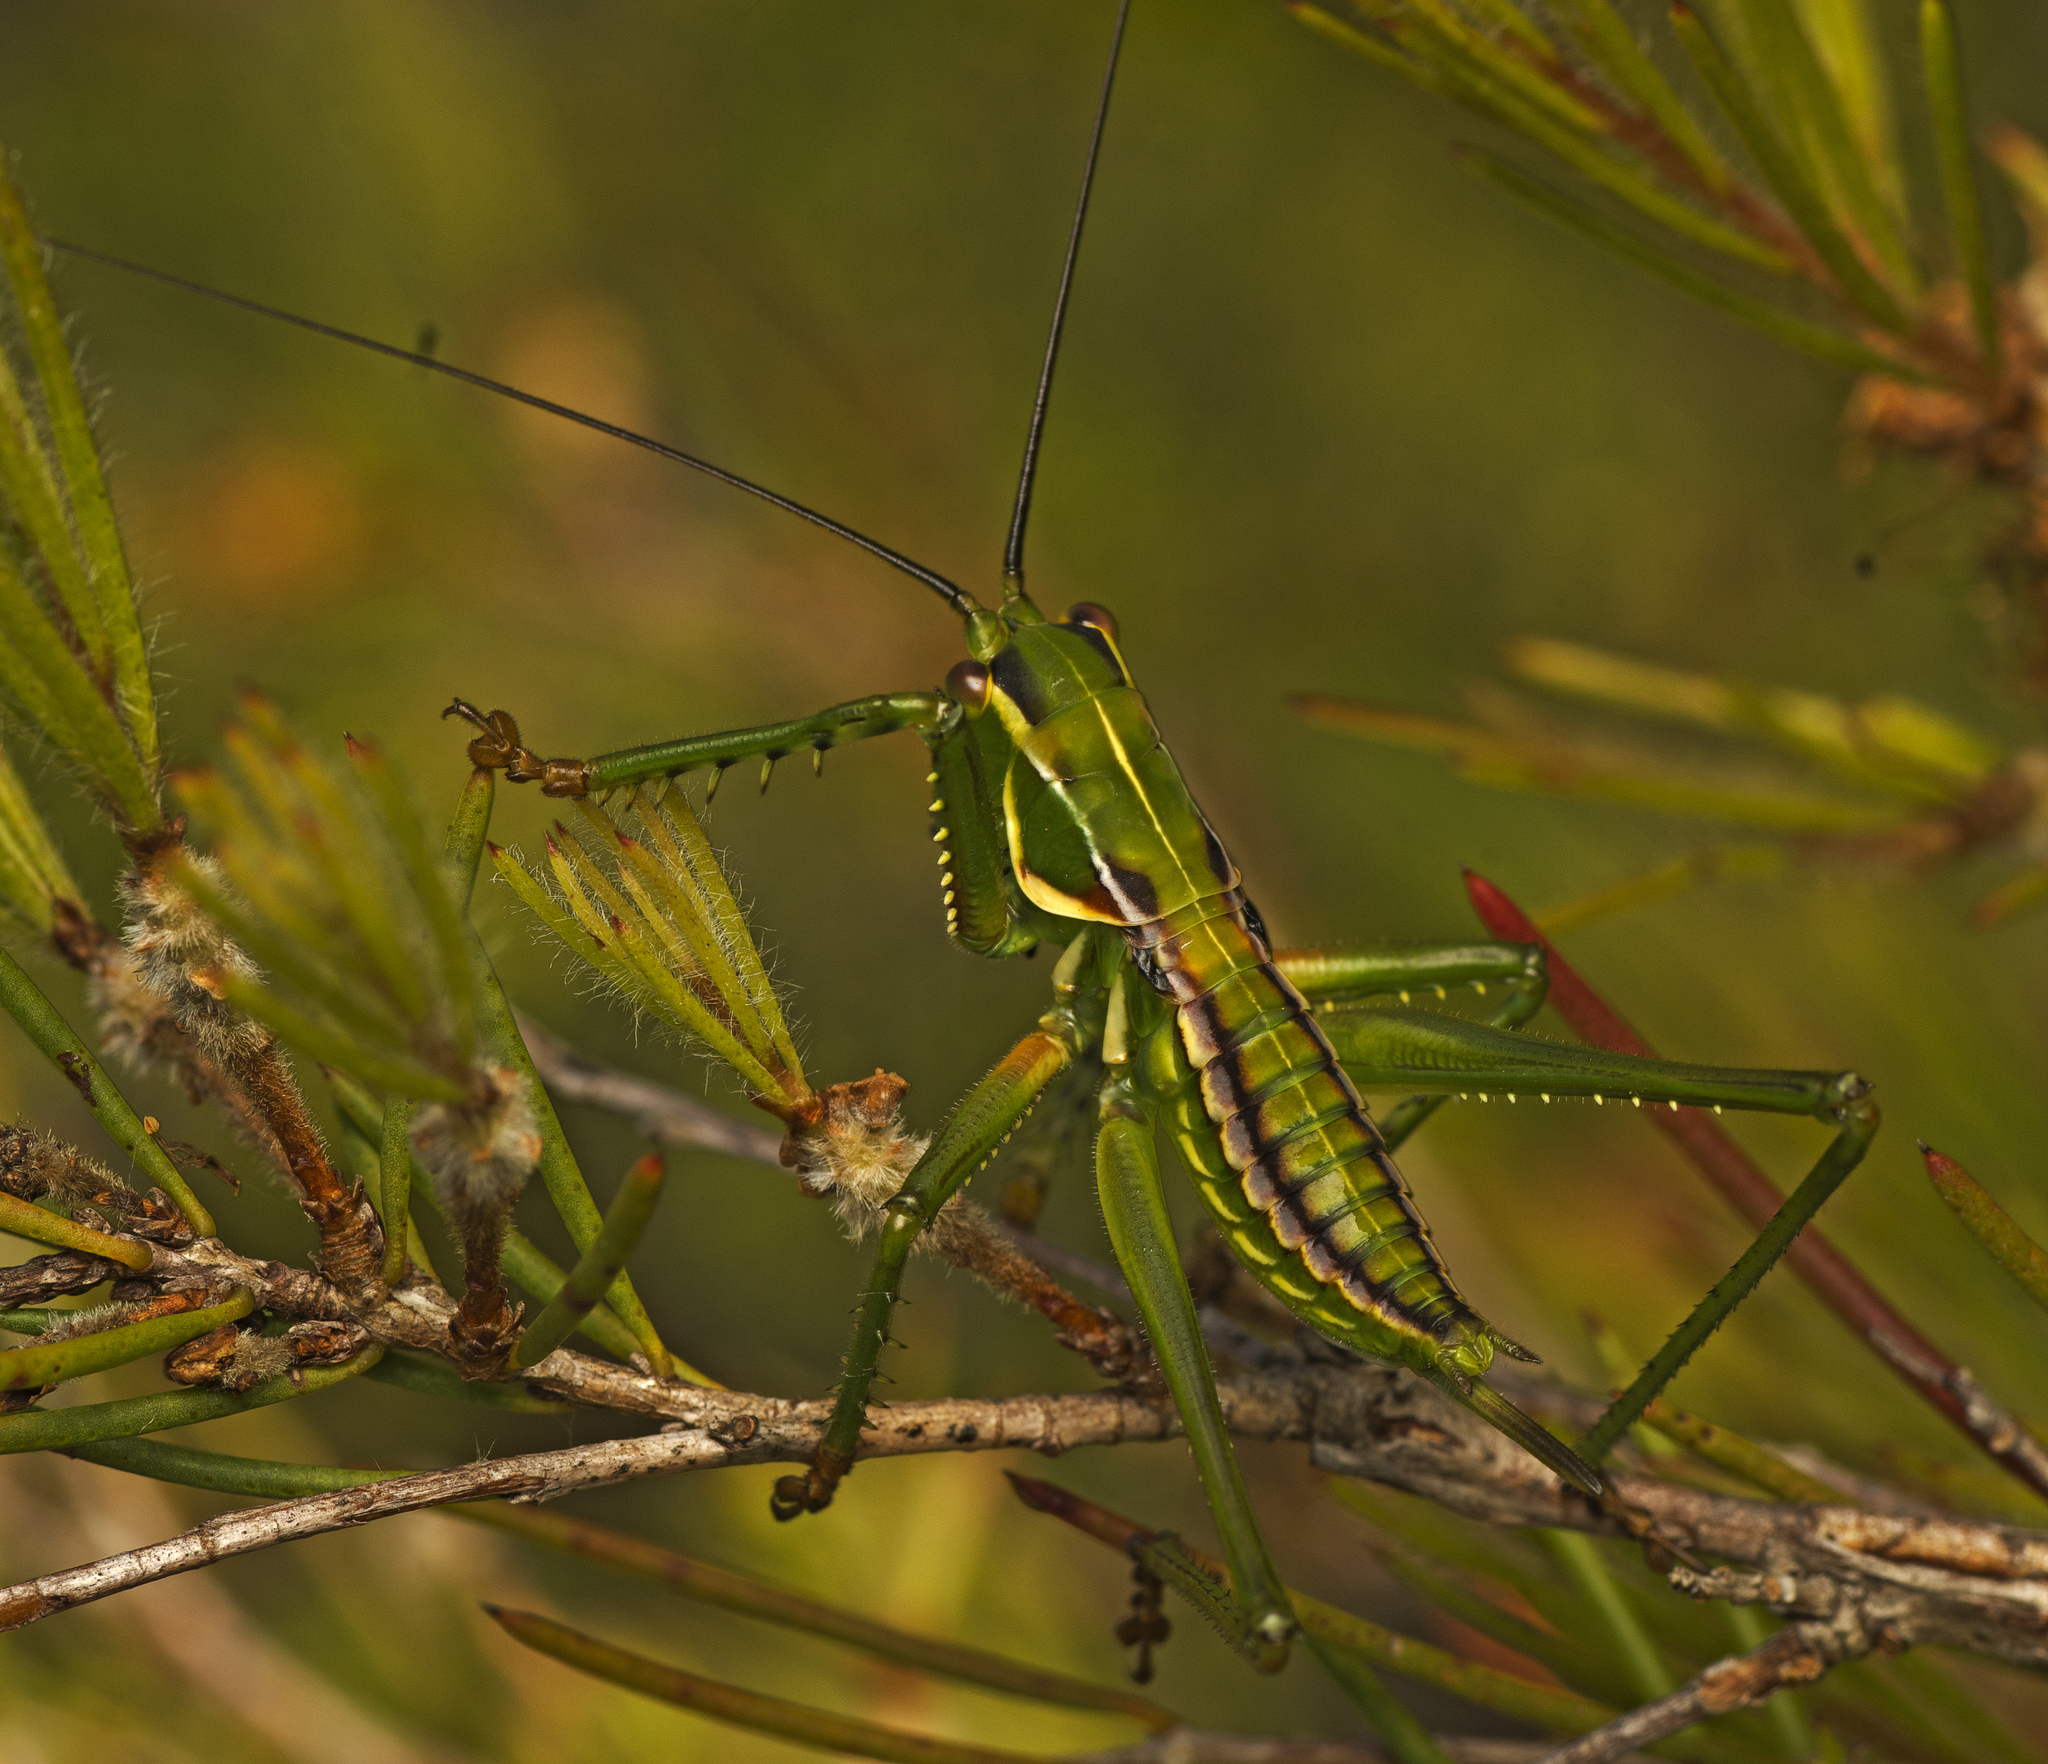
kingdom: Animalia
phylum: Arthropoda
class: Insecta
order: Orthoptera
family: Tettigoniidae
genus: Terpandrus
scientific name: Terpandrus burragah
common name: Beautiful gumleaf katydid
